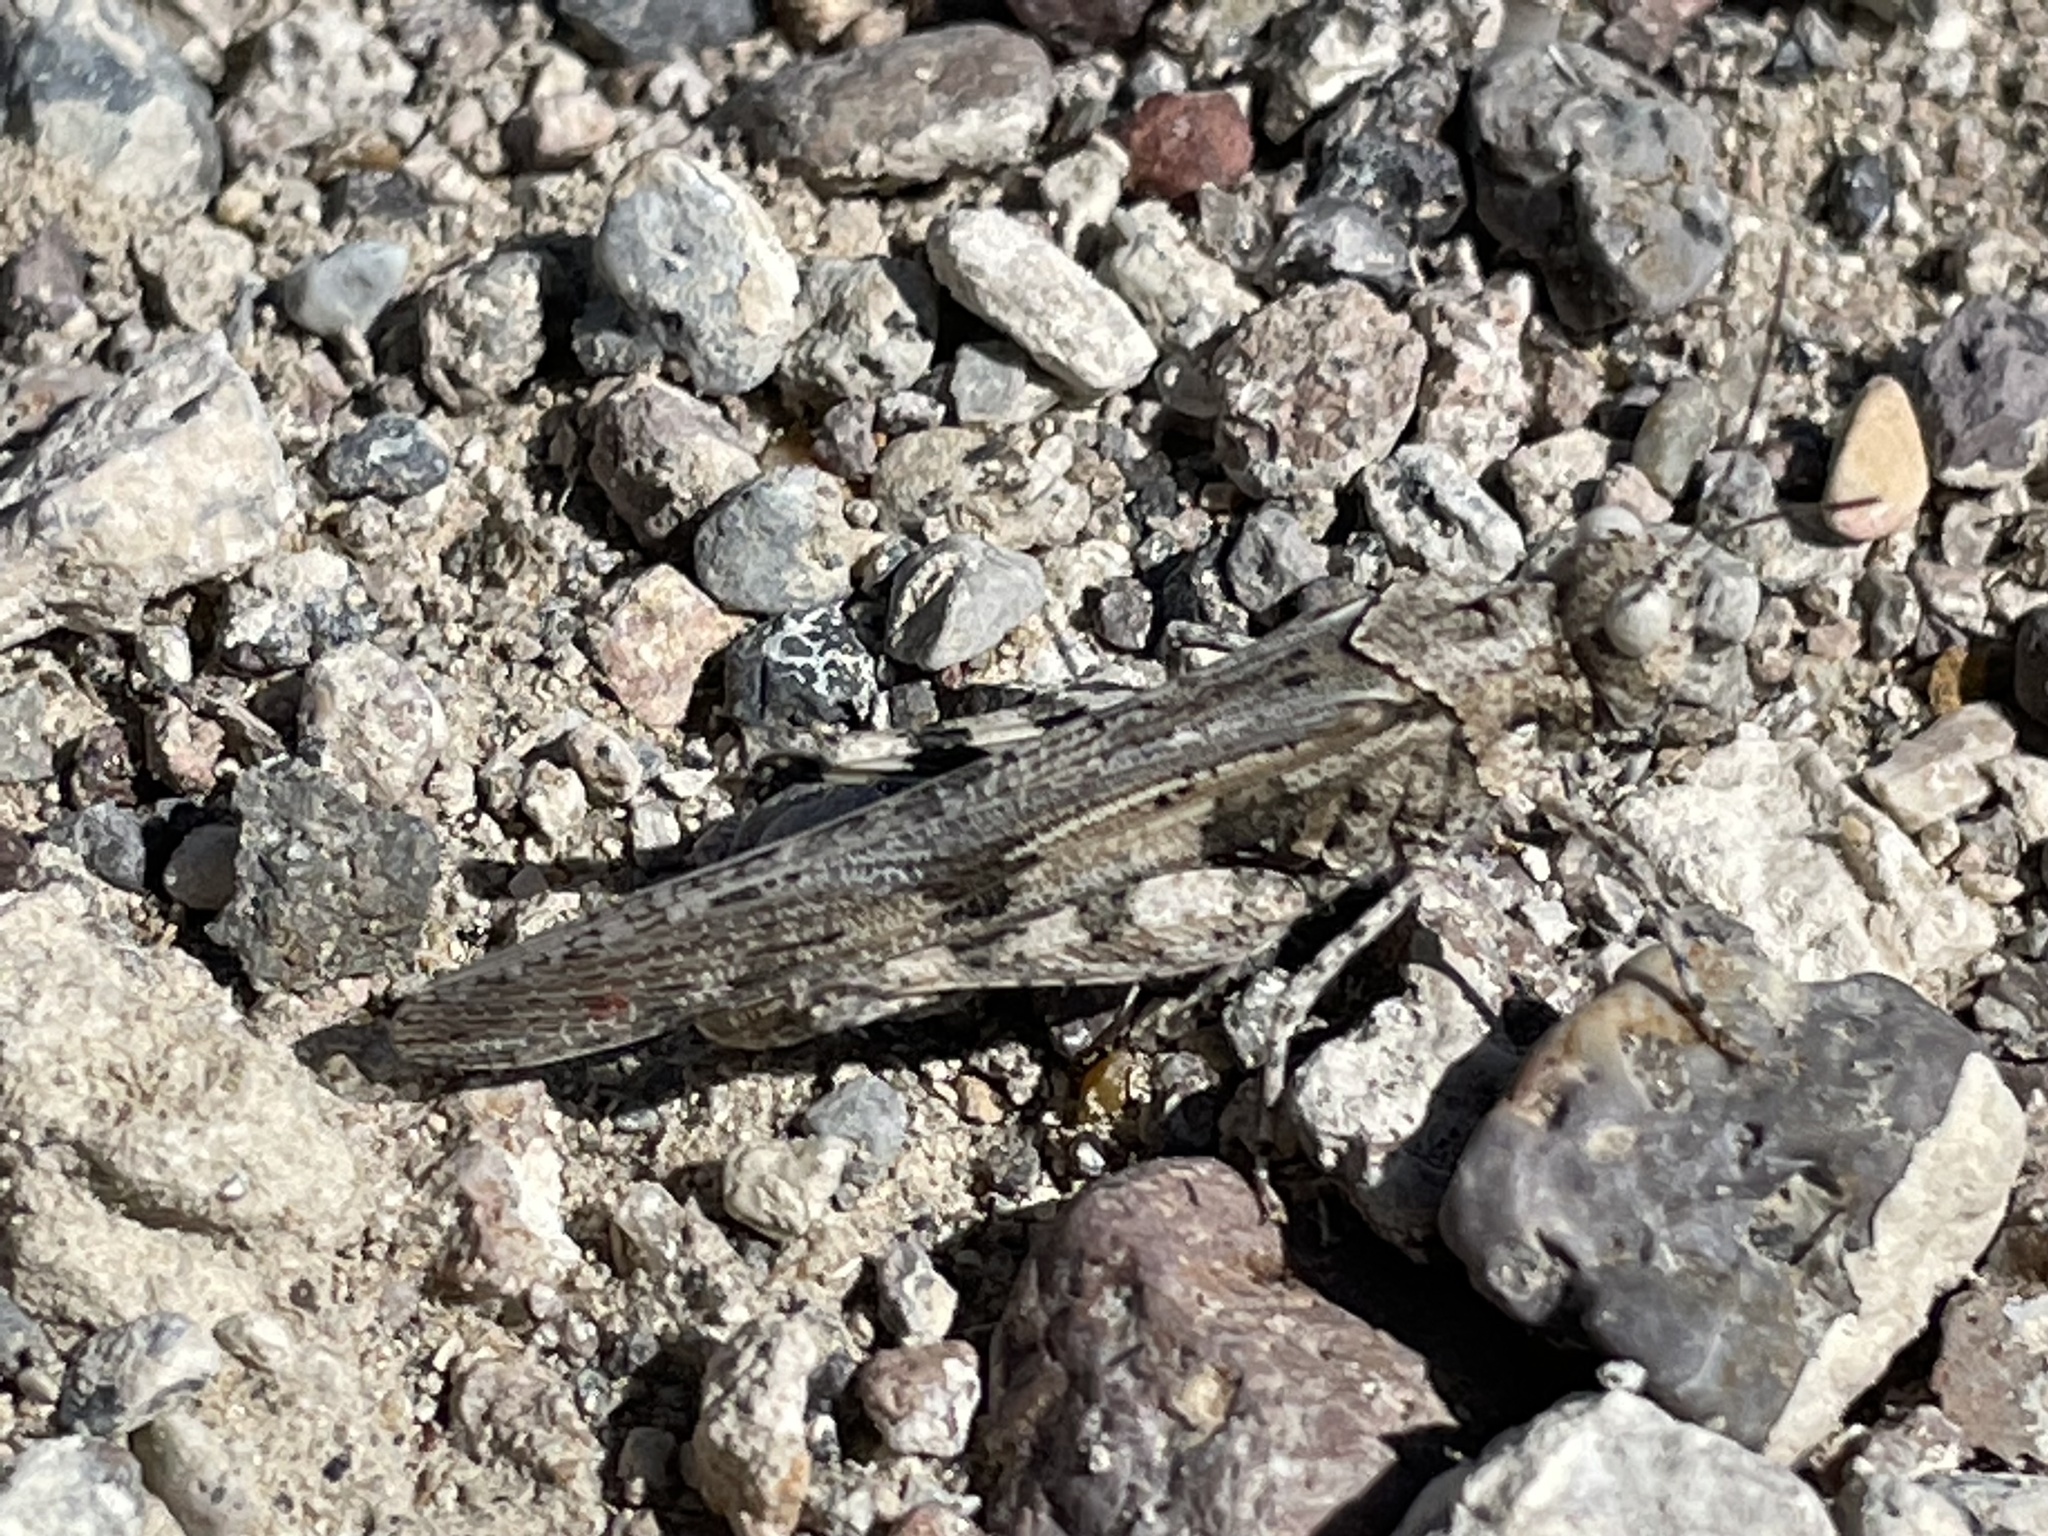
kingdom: Animalia
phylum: Arthropoda
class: Insecta
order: Orthoptera
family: Acrididae
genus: Trimerotropis
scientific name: Trimerotropis pallidipennis
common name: Pallid-winged grasshopper
